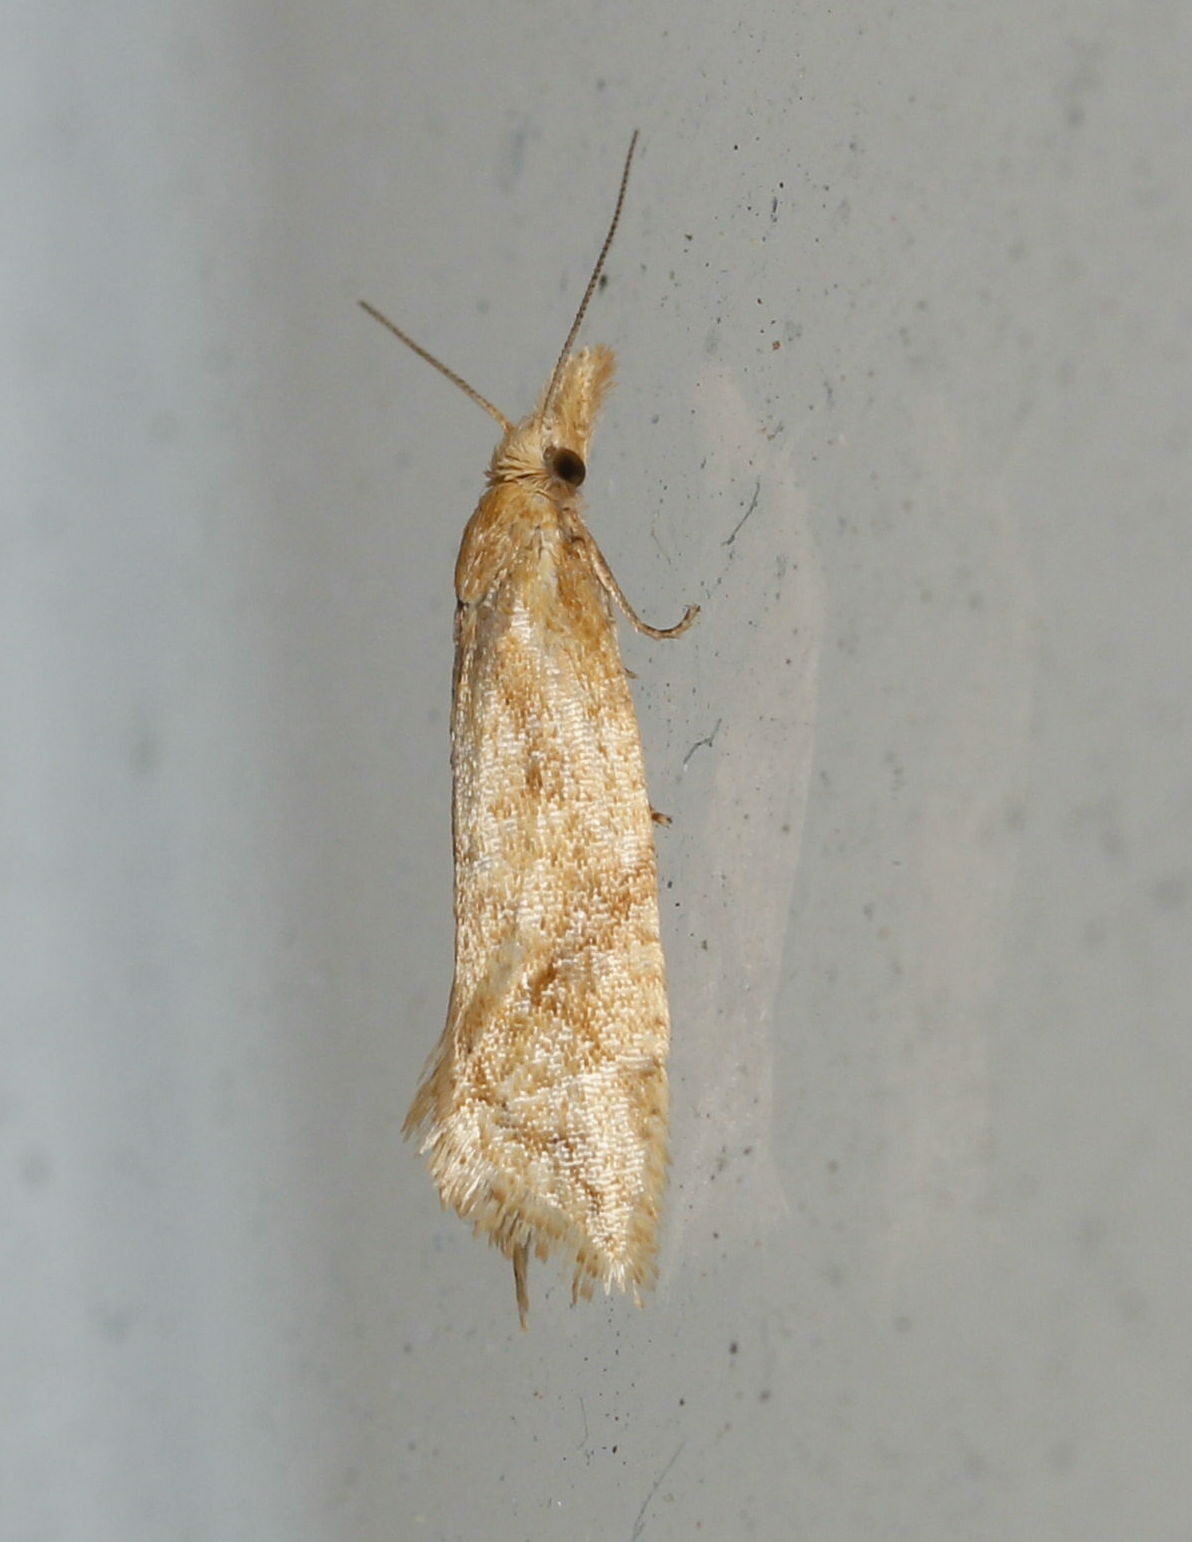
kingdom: Animalia
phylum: Arthropoda
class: Insecta
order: Lepidoptera
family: Tortricidae
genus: Aethes
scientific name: Aethes biscana
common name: Reddish aethes
